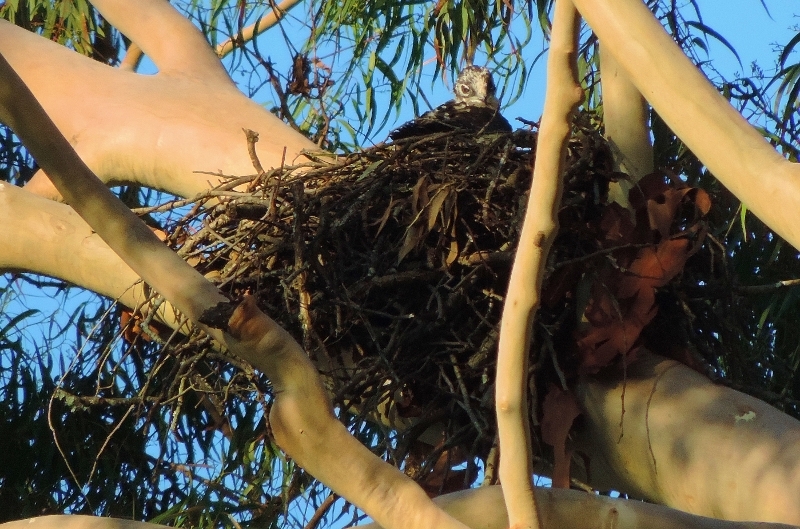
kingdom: Animalia
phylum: Chordata
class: Aves
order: Accipitriformes
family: Accipitridae
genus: Macheiramphus
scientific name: Macheiramphus alcinus
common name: Bat hawk
